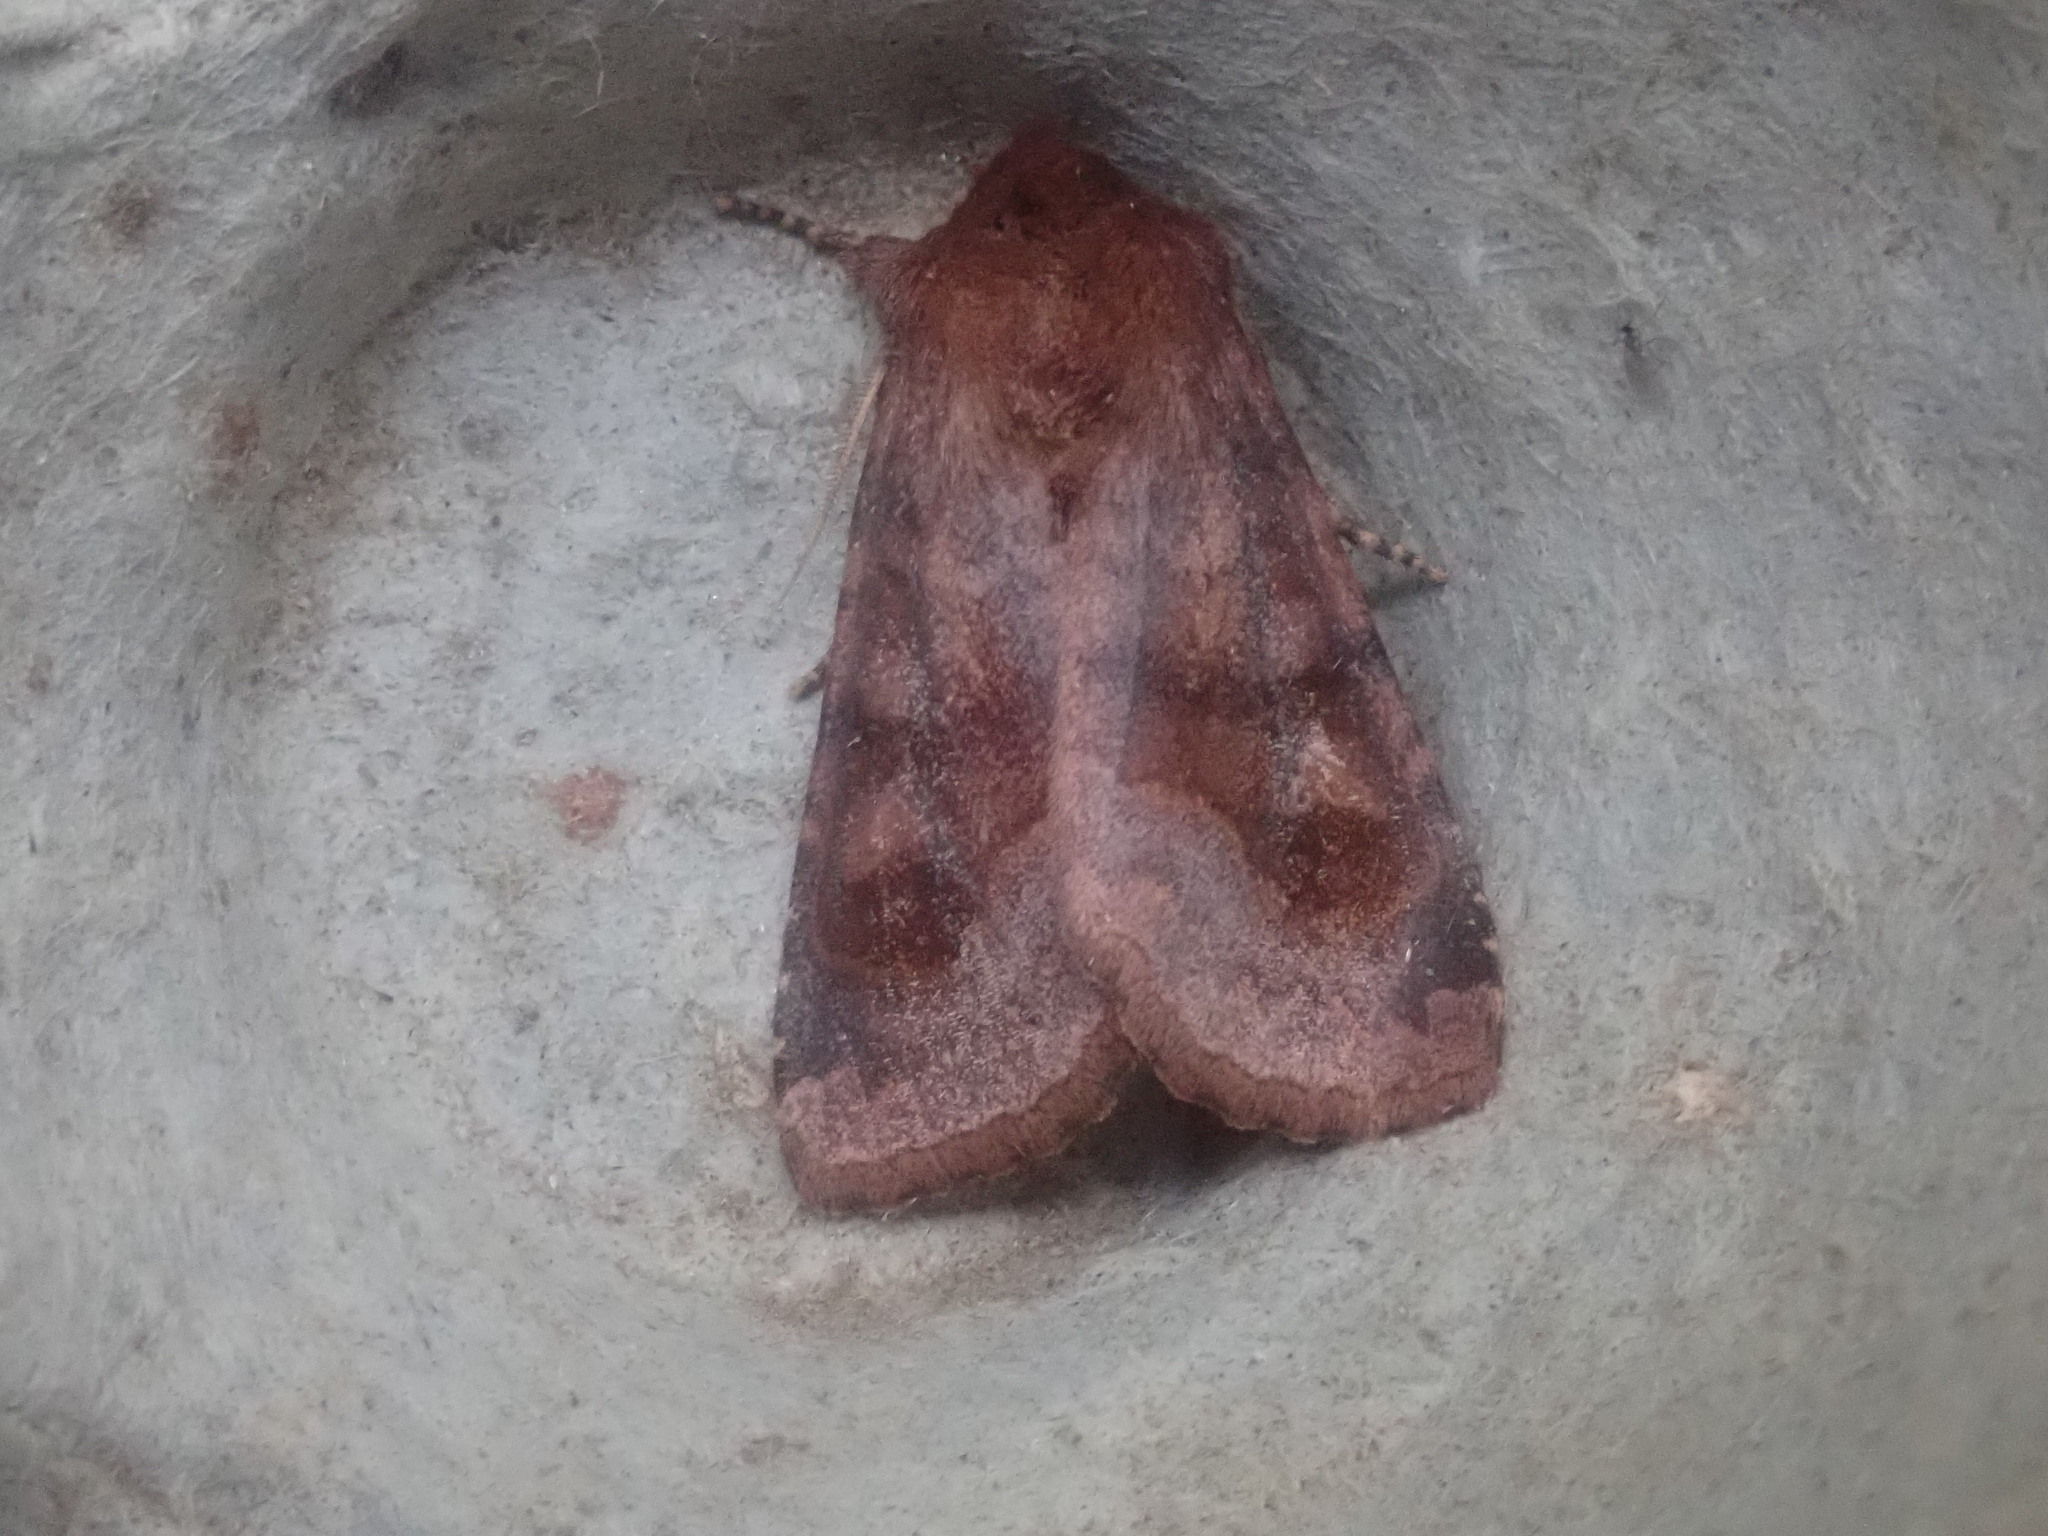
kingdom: Animalia
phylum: Arthropoda
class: Insecta
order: Lepidoptera
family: Noctuidae
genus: Nephelodes
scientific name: Nephelodes minians
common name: Bronzed cutworm
